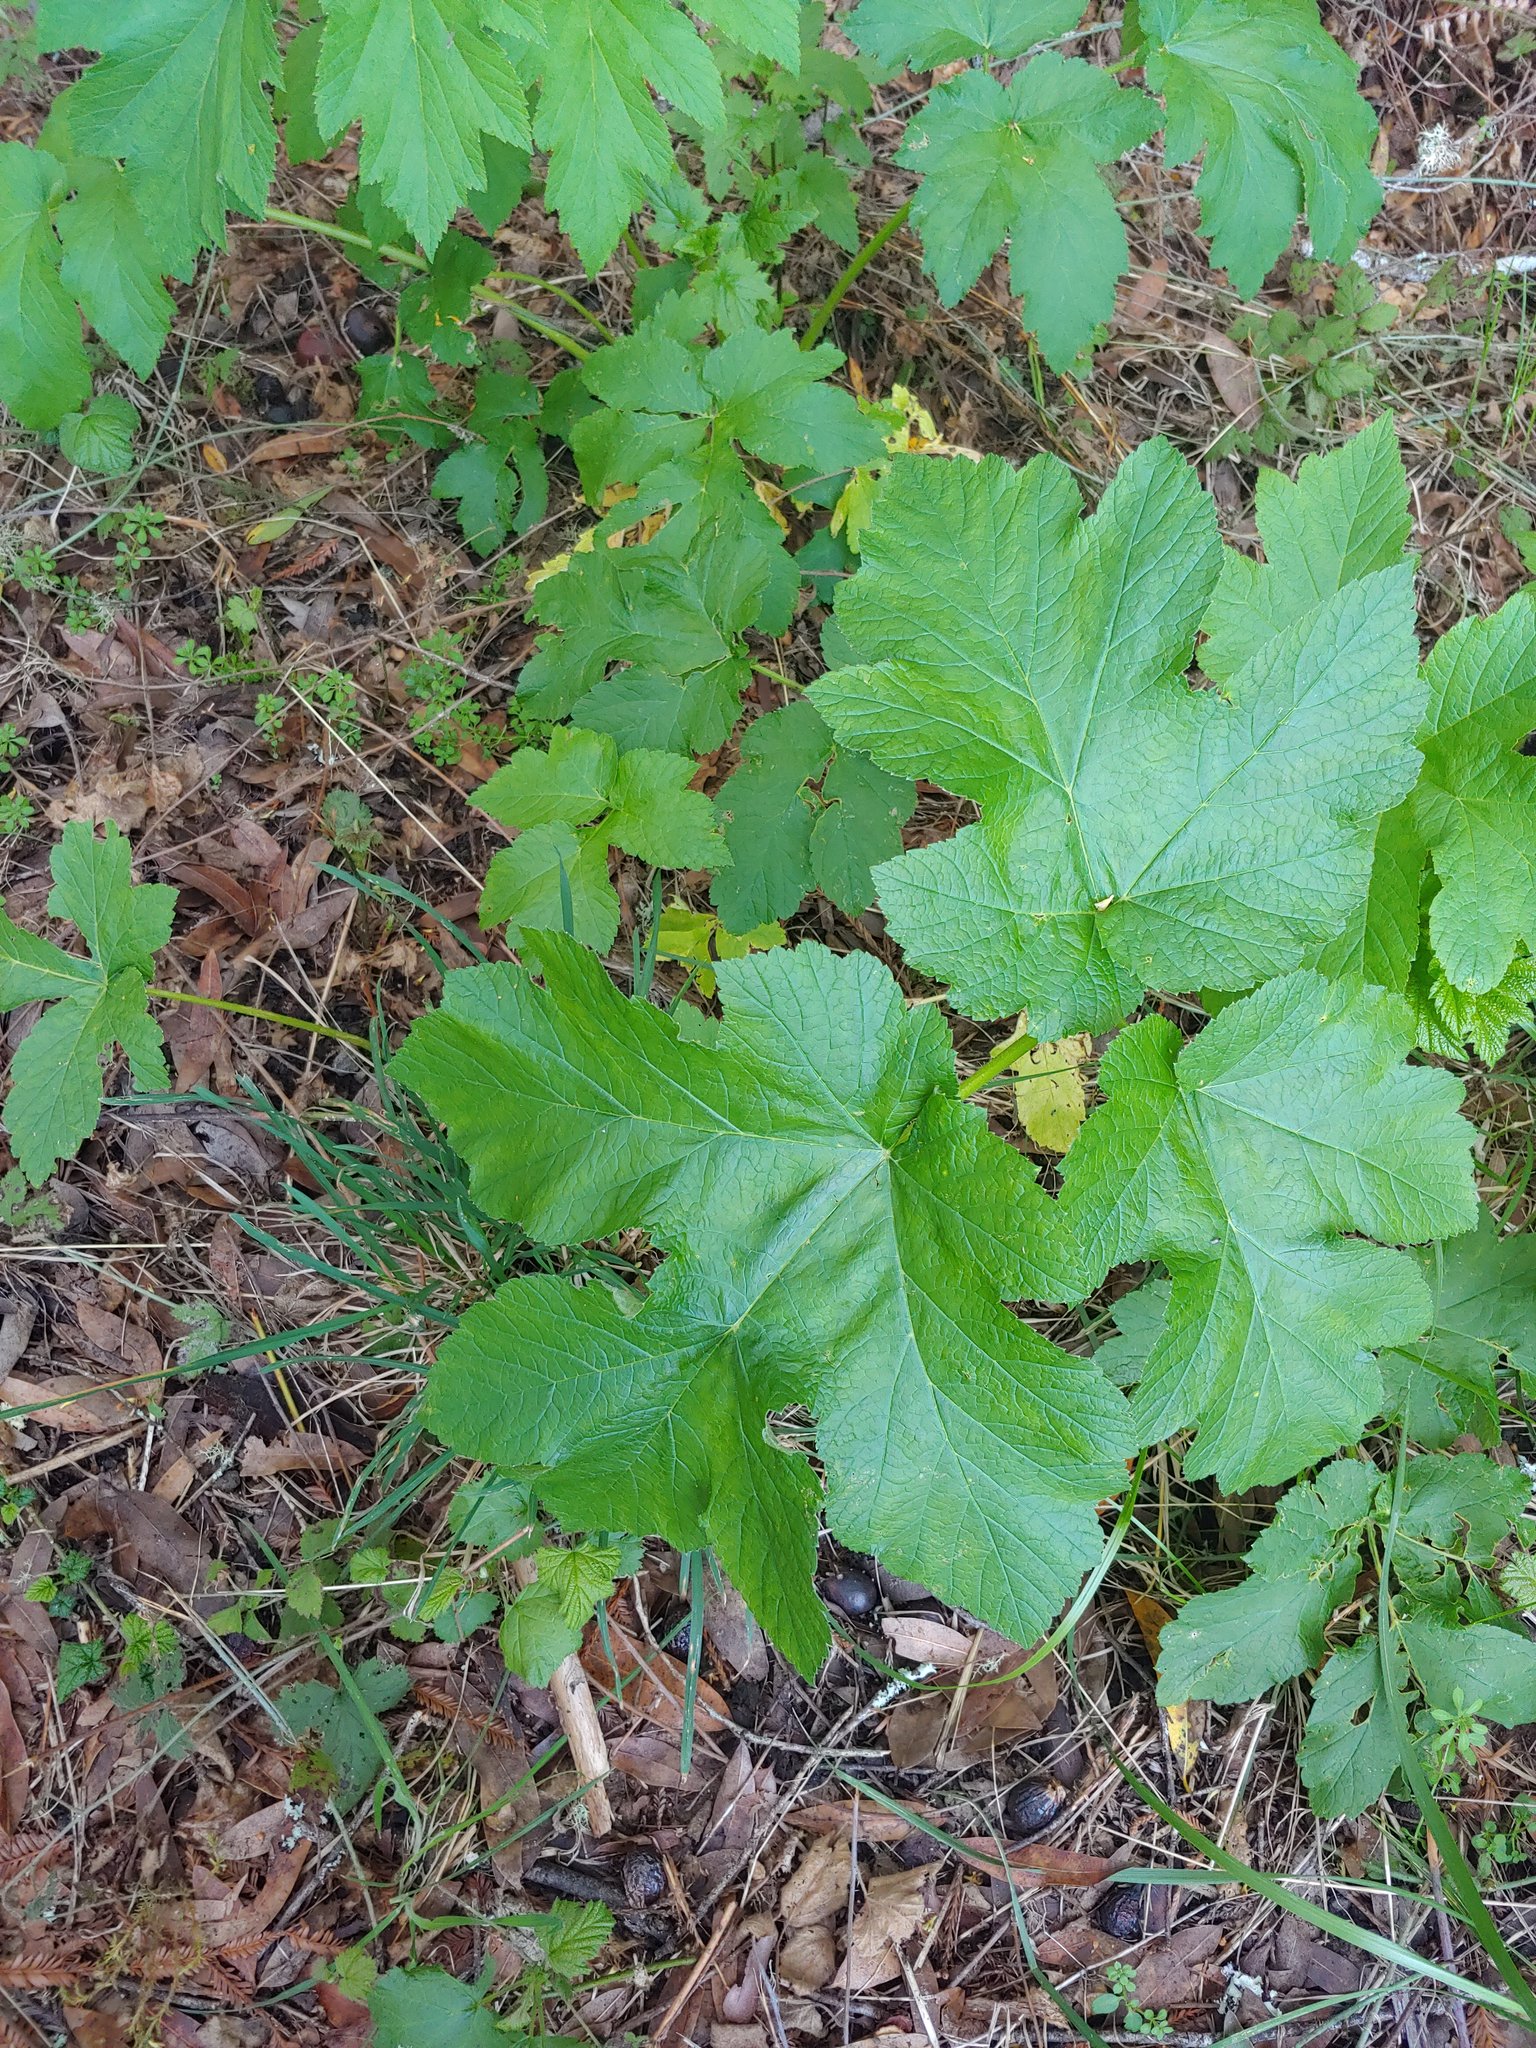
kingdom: Plantae
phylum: Tracheophyta
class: Magnoliopsida
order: Apiales
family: Apiaceae
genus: Heracleum
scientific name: Heracleum maximum
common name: American cow parsnip
